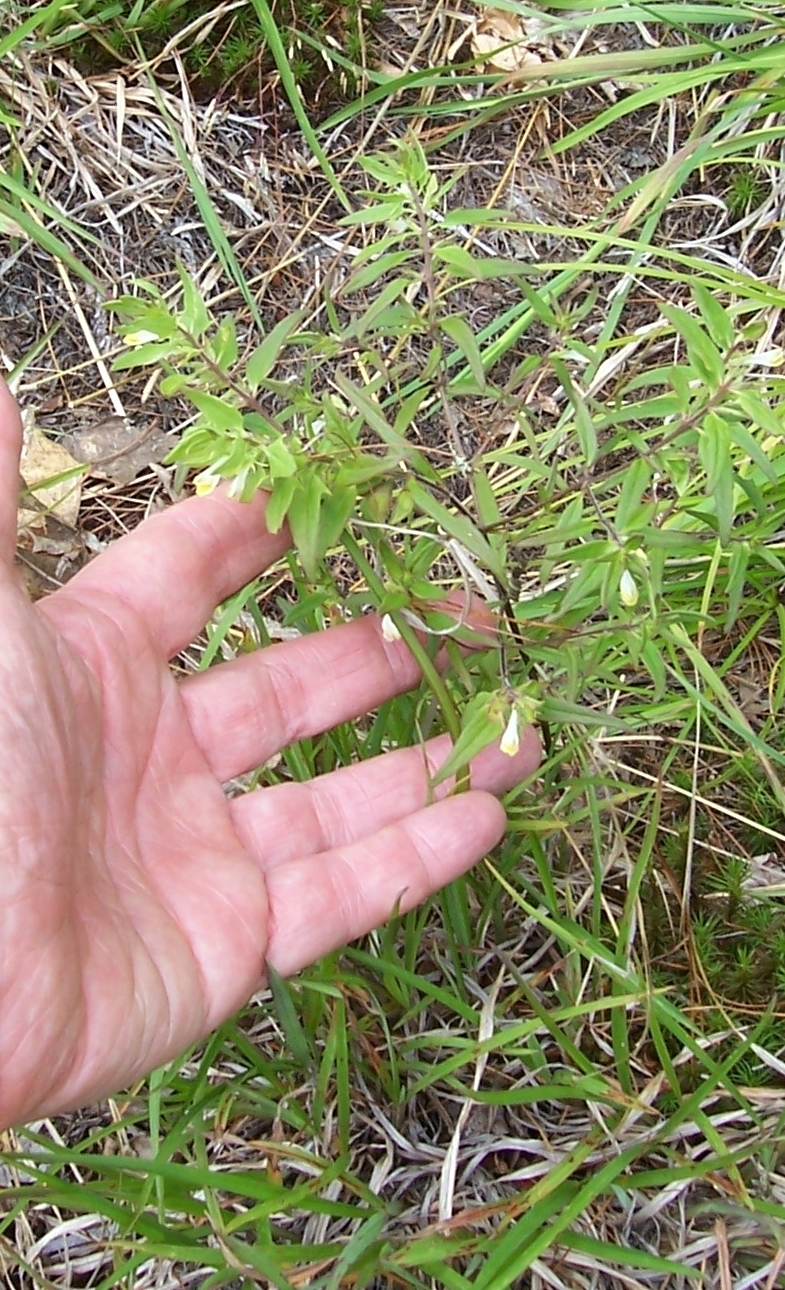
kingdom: Plantae
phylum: Tracheophyta
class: Magnoliopsida
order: Lamiales
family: Orobanchaceae
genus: Melampyrum
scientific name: Melampyrum lineare
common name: American cow-wheat
